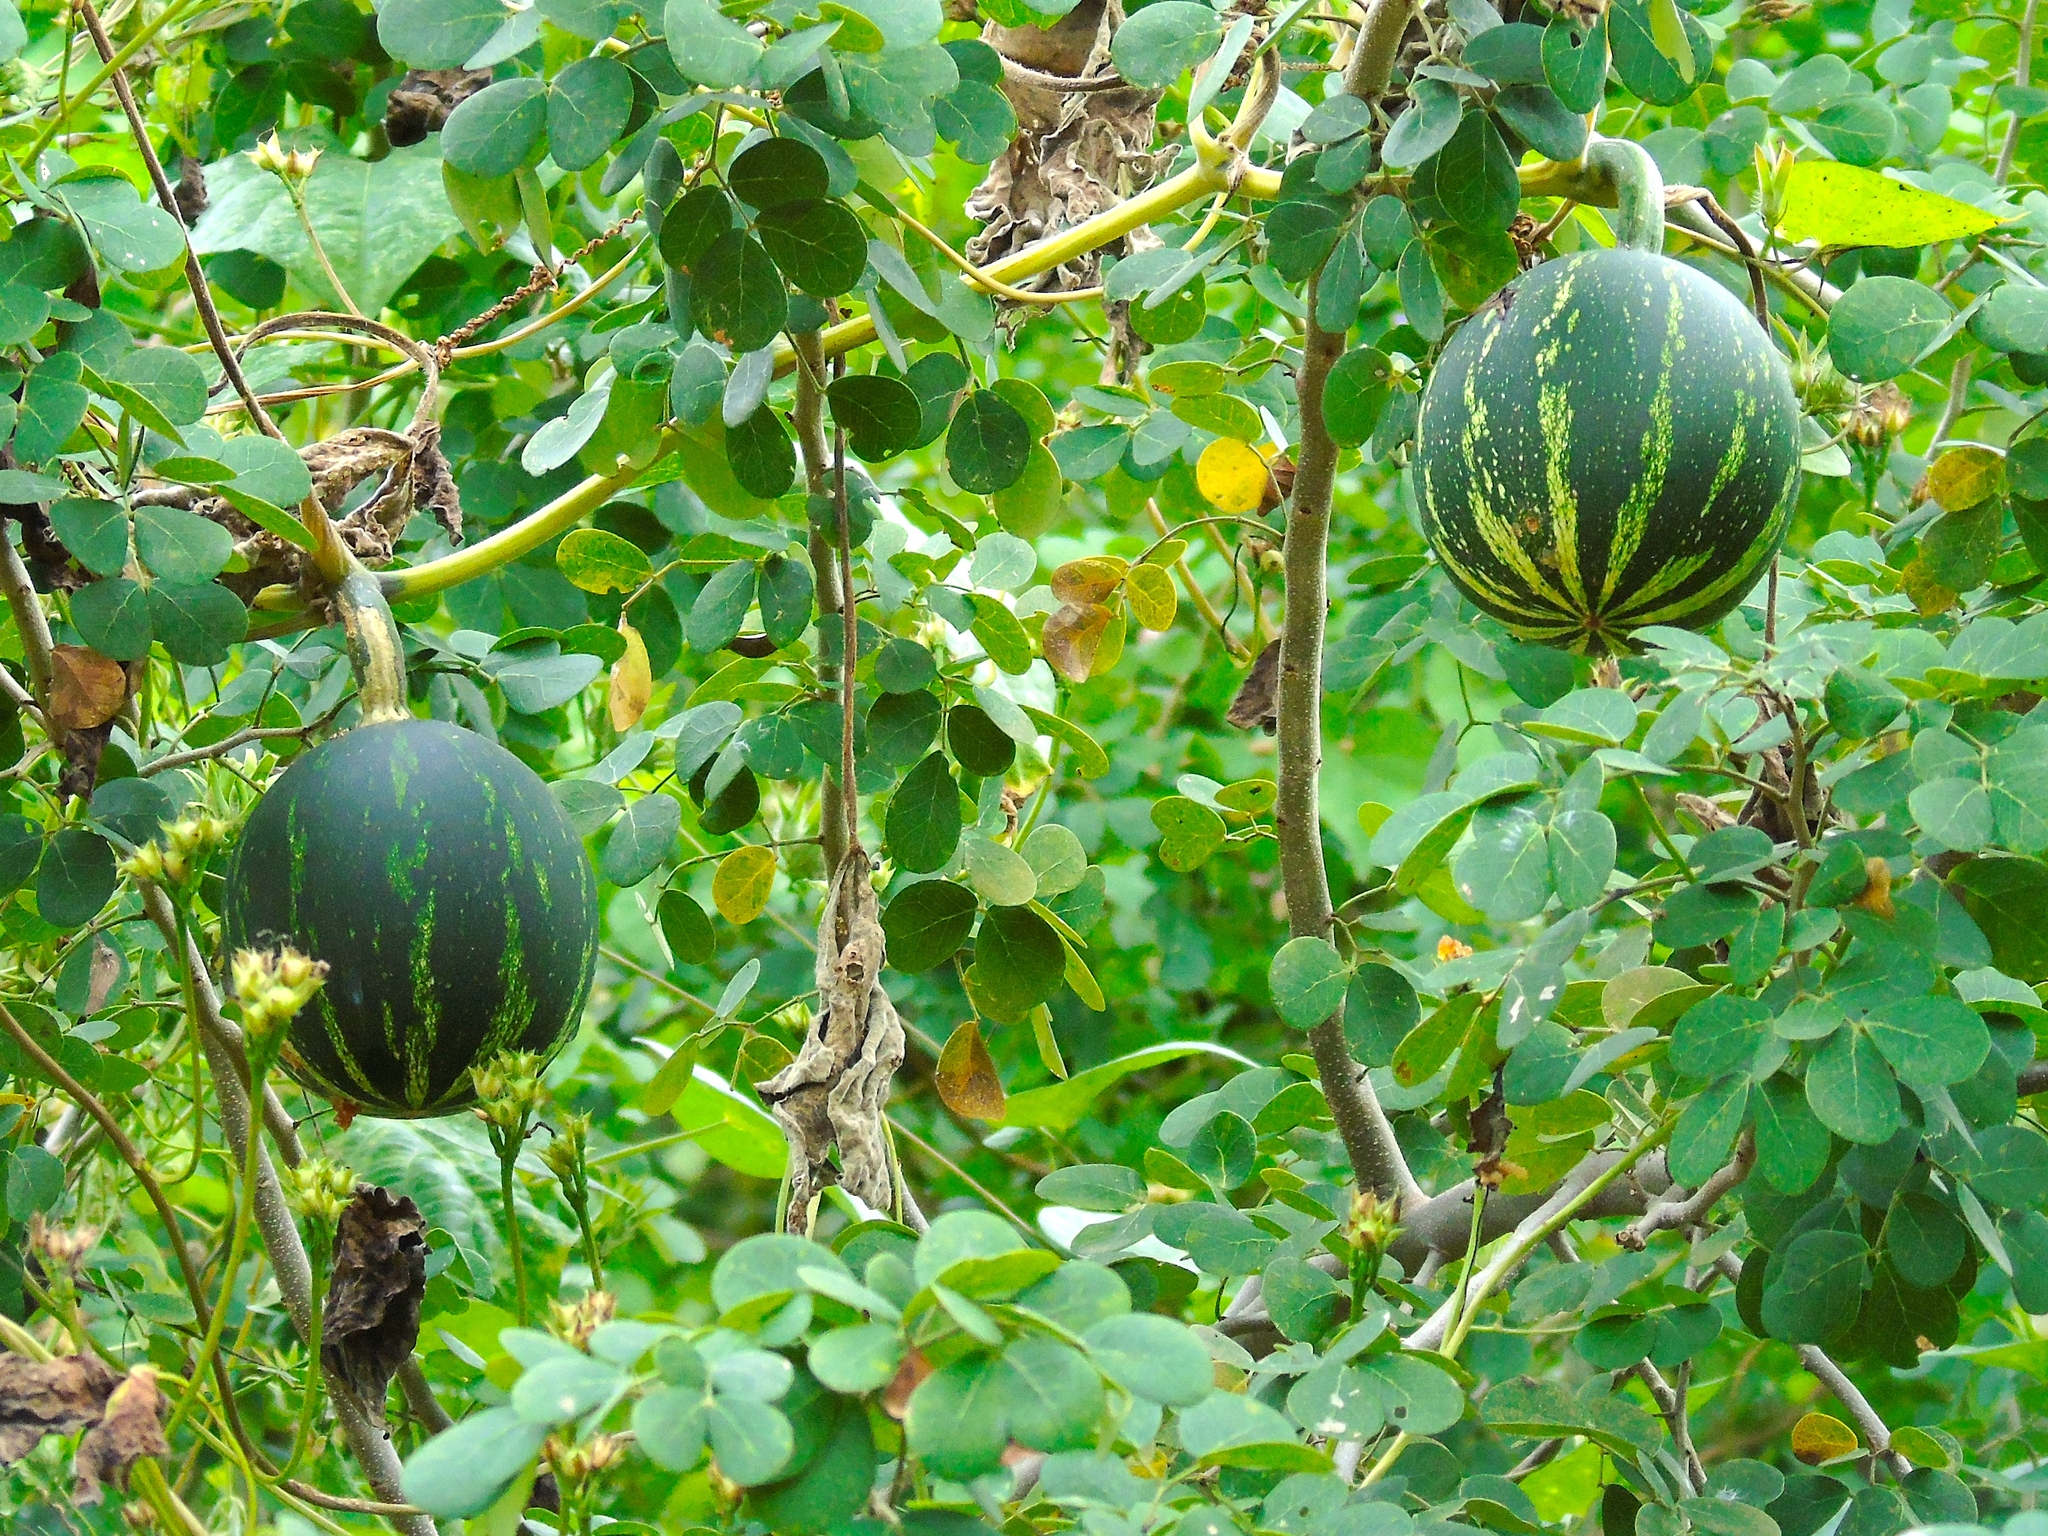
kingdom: Plantae
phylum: Tracheophyta
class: Magnoliopsida
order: Cucurbitales
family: Cucurbitaceae
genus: Cucurbita
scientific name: Cucurbita
